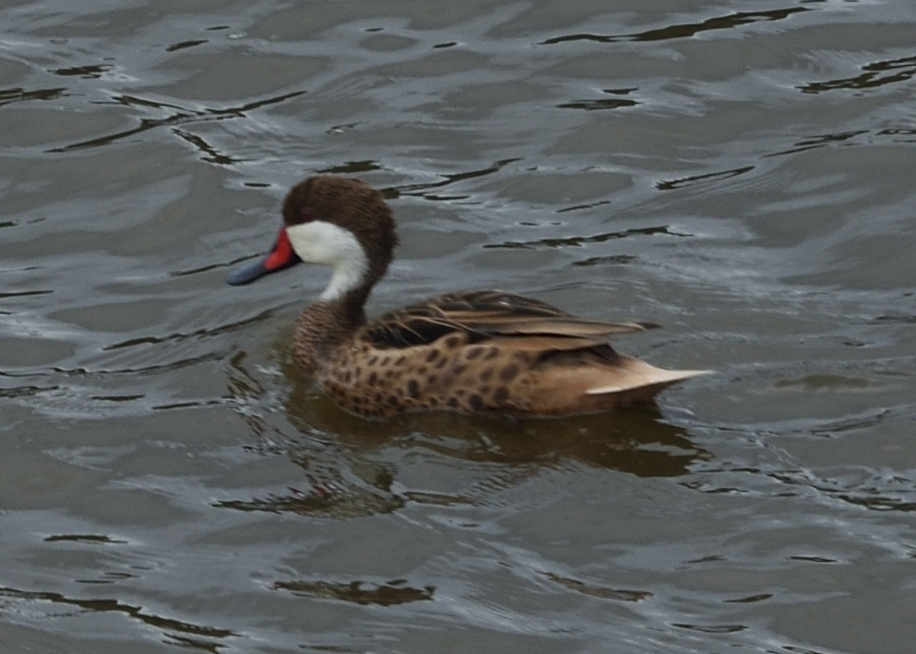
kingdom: Animalia
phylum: Chordata
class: Aves
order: Anseriformes
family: Anatidae
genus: Anas
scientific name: Anas bahamensis
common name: White-cheeked pintail
